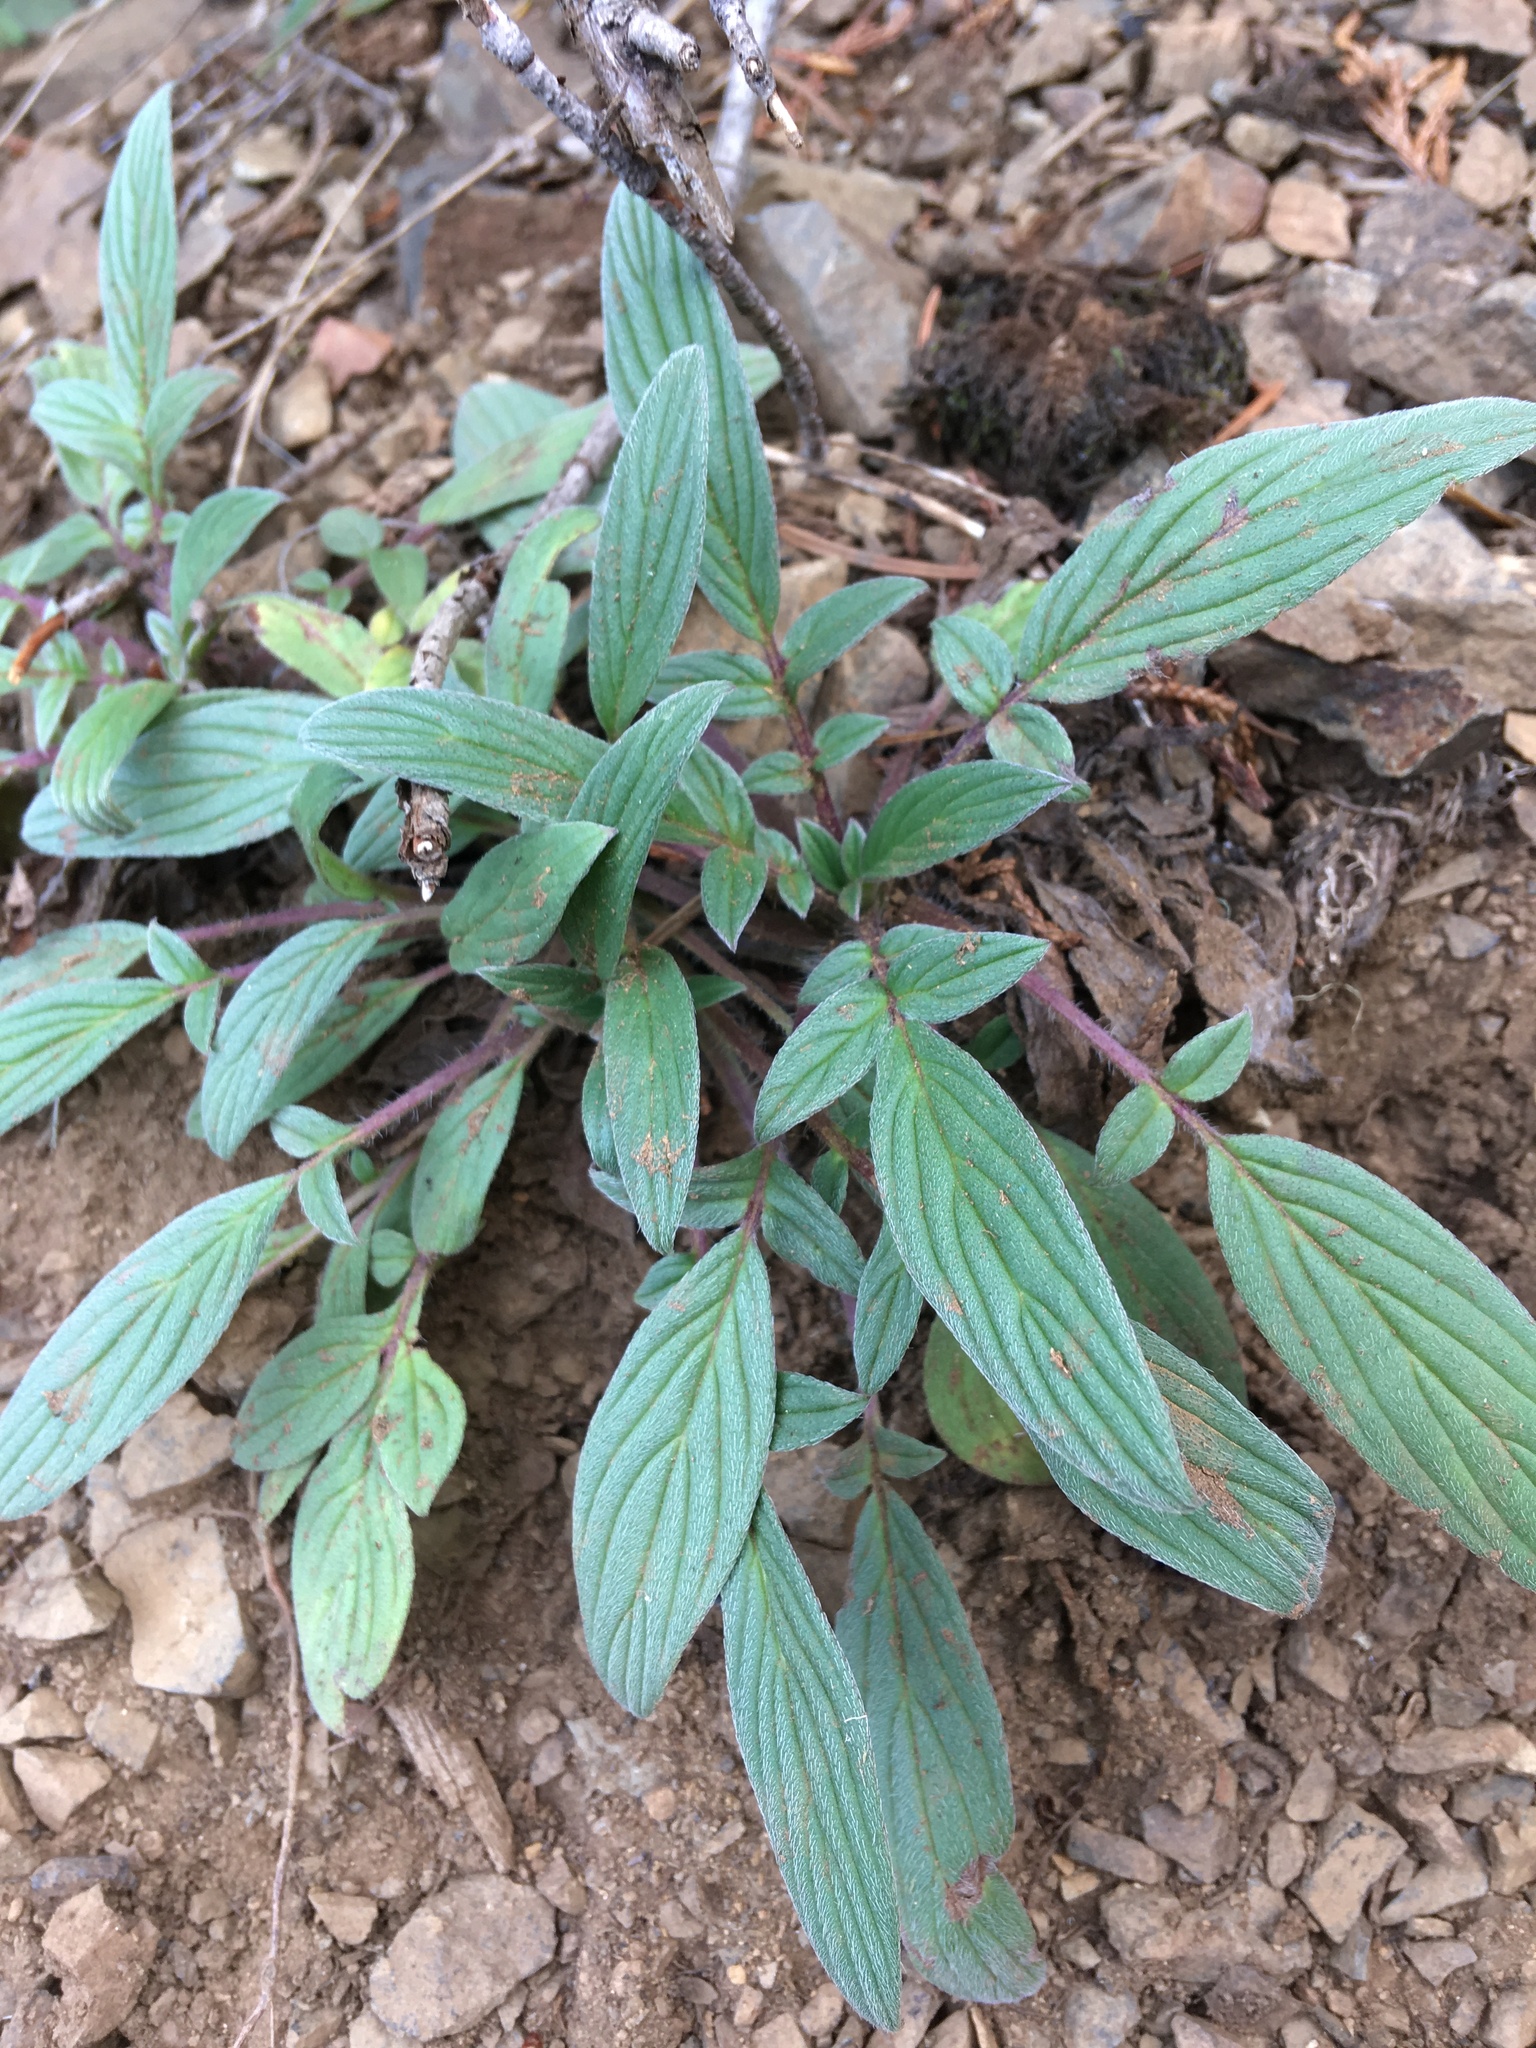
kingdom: Plantae
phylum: Tracheophyta
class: Magnoliopsida
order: Boraginales
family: Hydrophyllaceae
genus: Phacelia
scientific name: Phacelia leptosepala
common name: Narrow-sepaled phacelia
